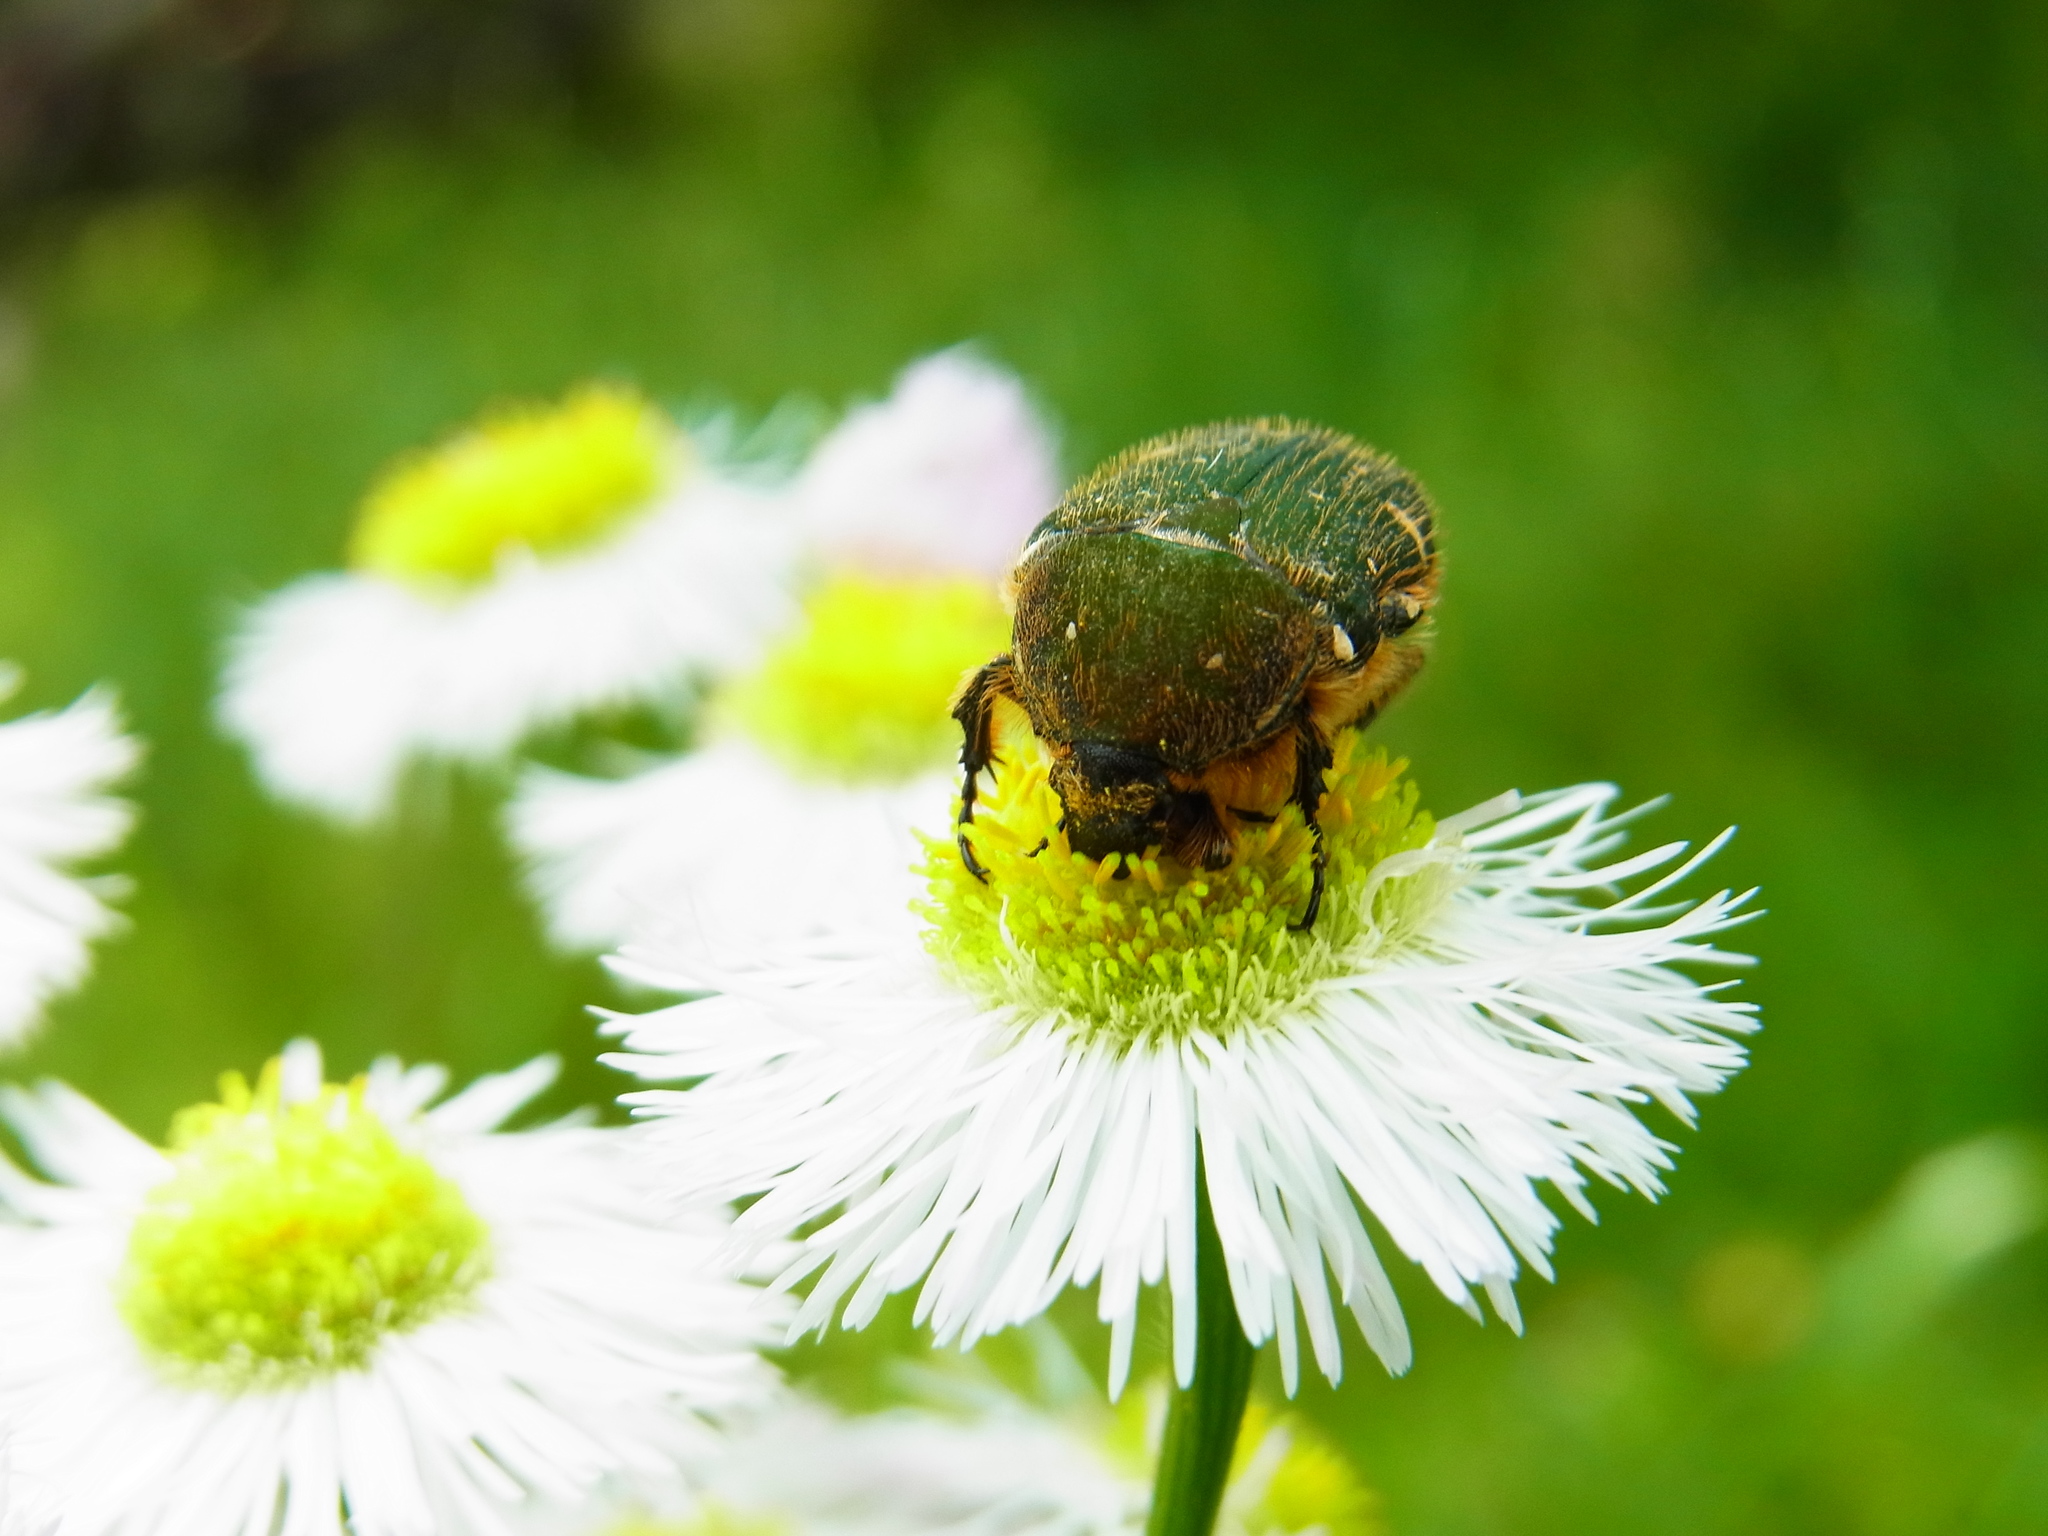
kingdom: Animalia
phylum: Arthropoda
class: Insecta
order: Coleoptera
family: Scarabaeidae
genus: Gametis
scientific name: Gametis jucunda
